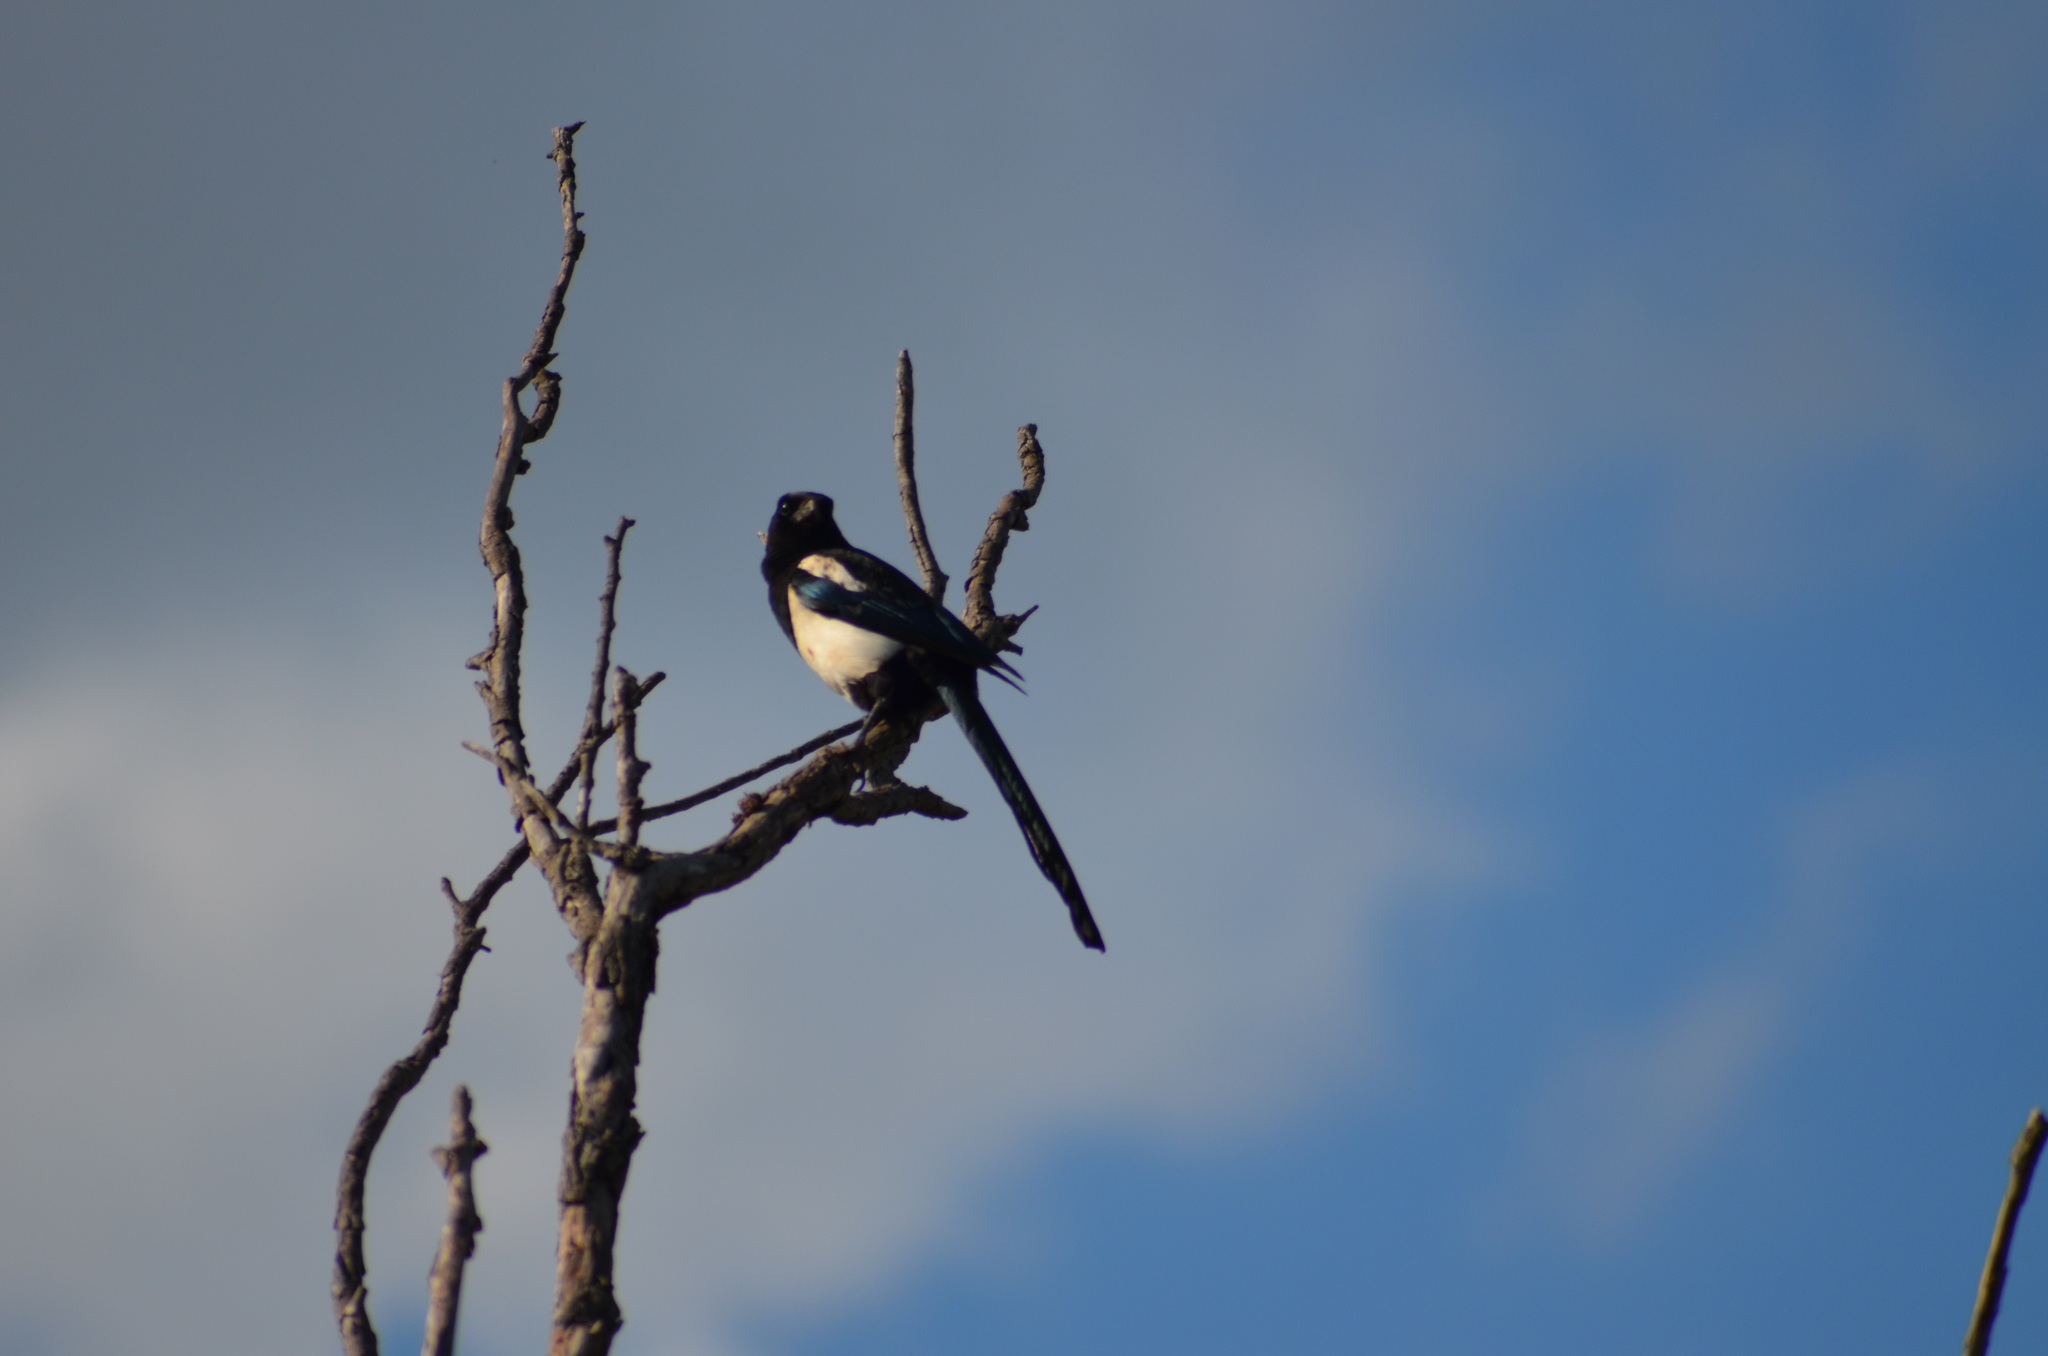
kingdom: Animalia
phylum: Chordata
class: Aves
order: Passeriformes
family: Corvidae
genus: Pica
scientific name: Pica pica
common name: Eurasian magpie
